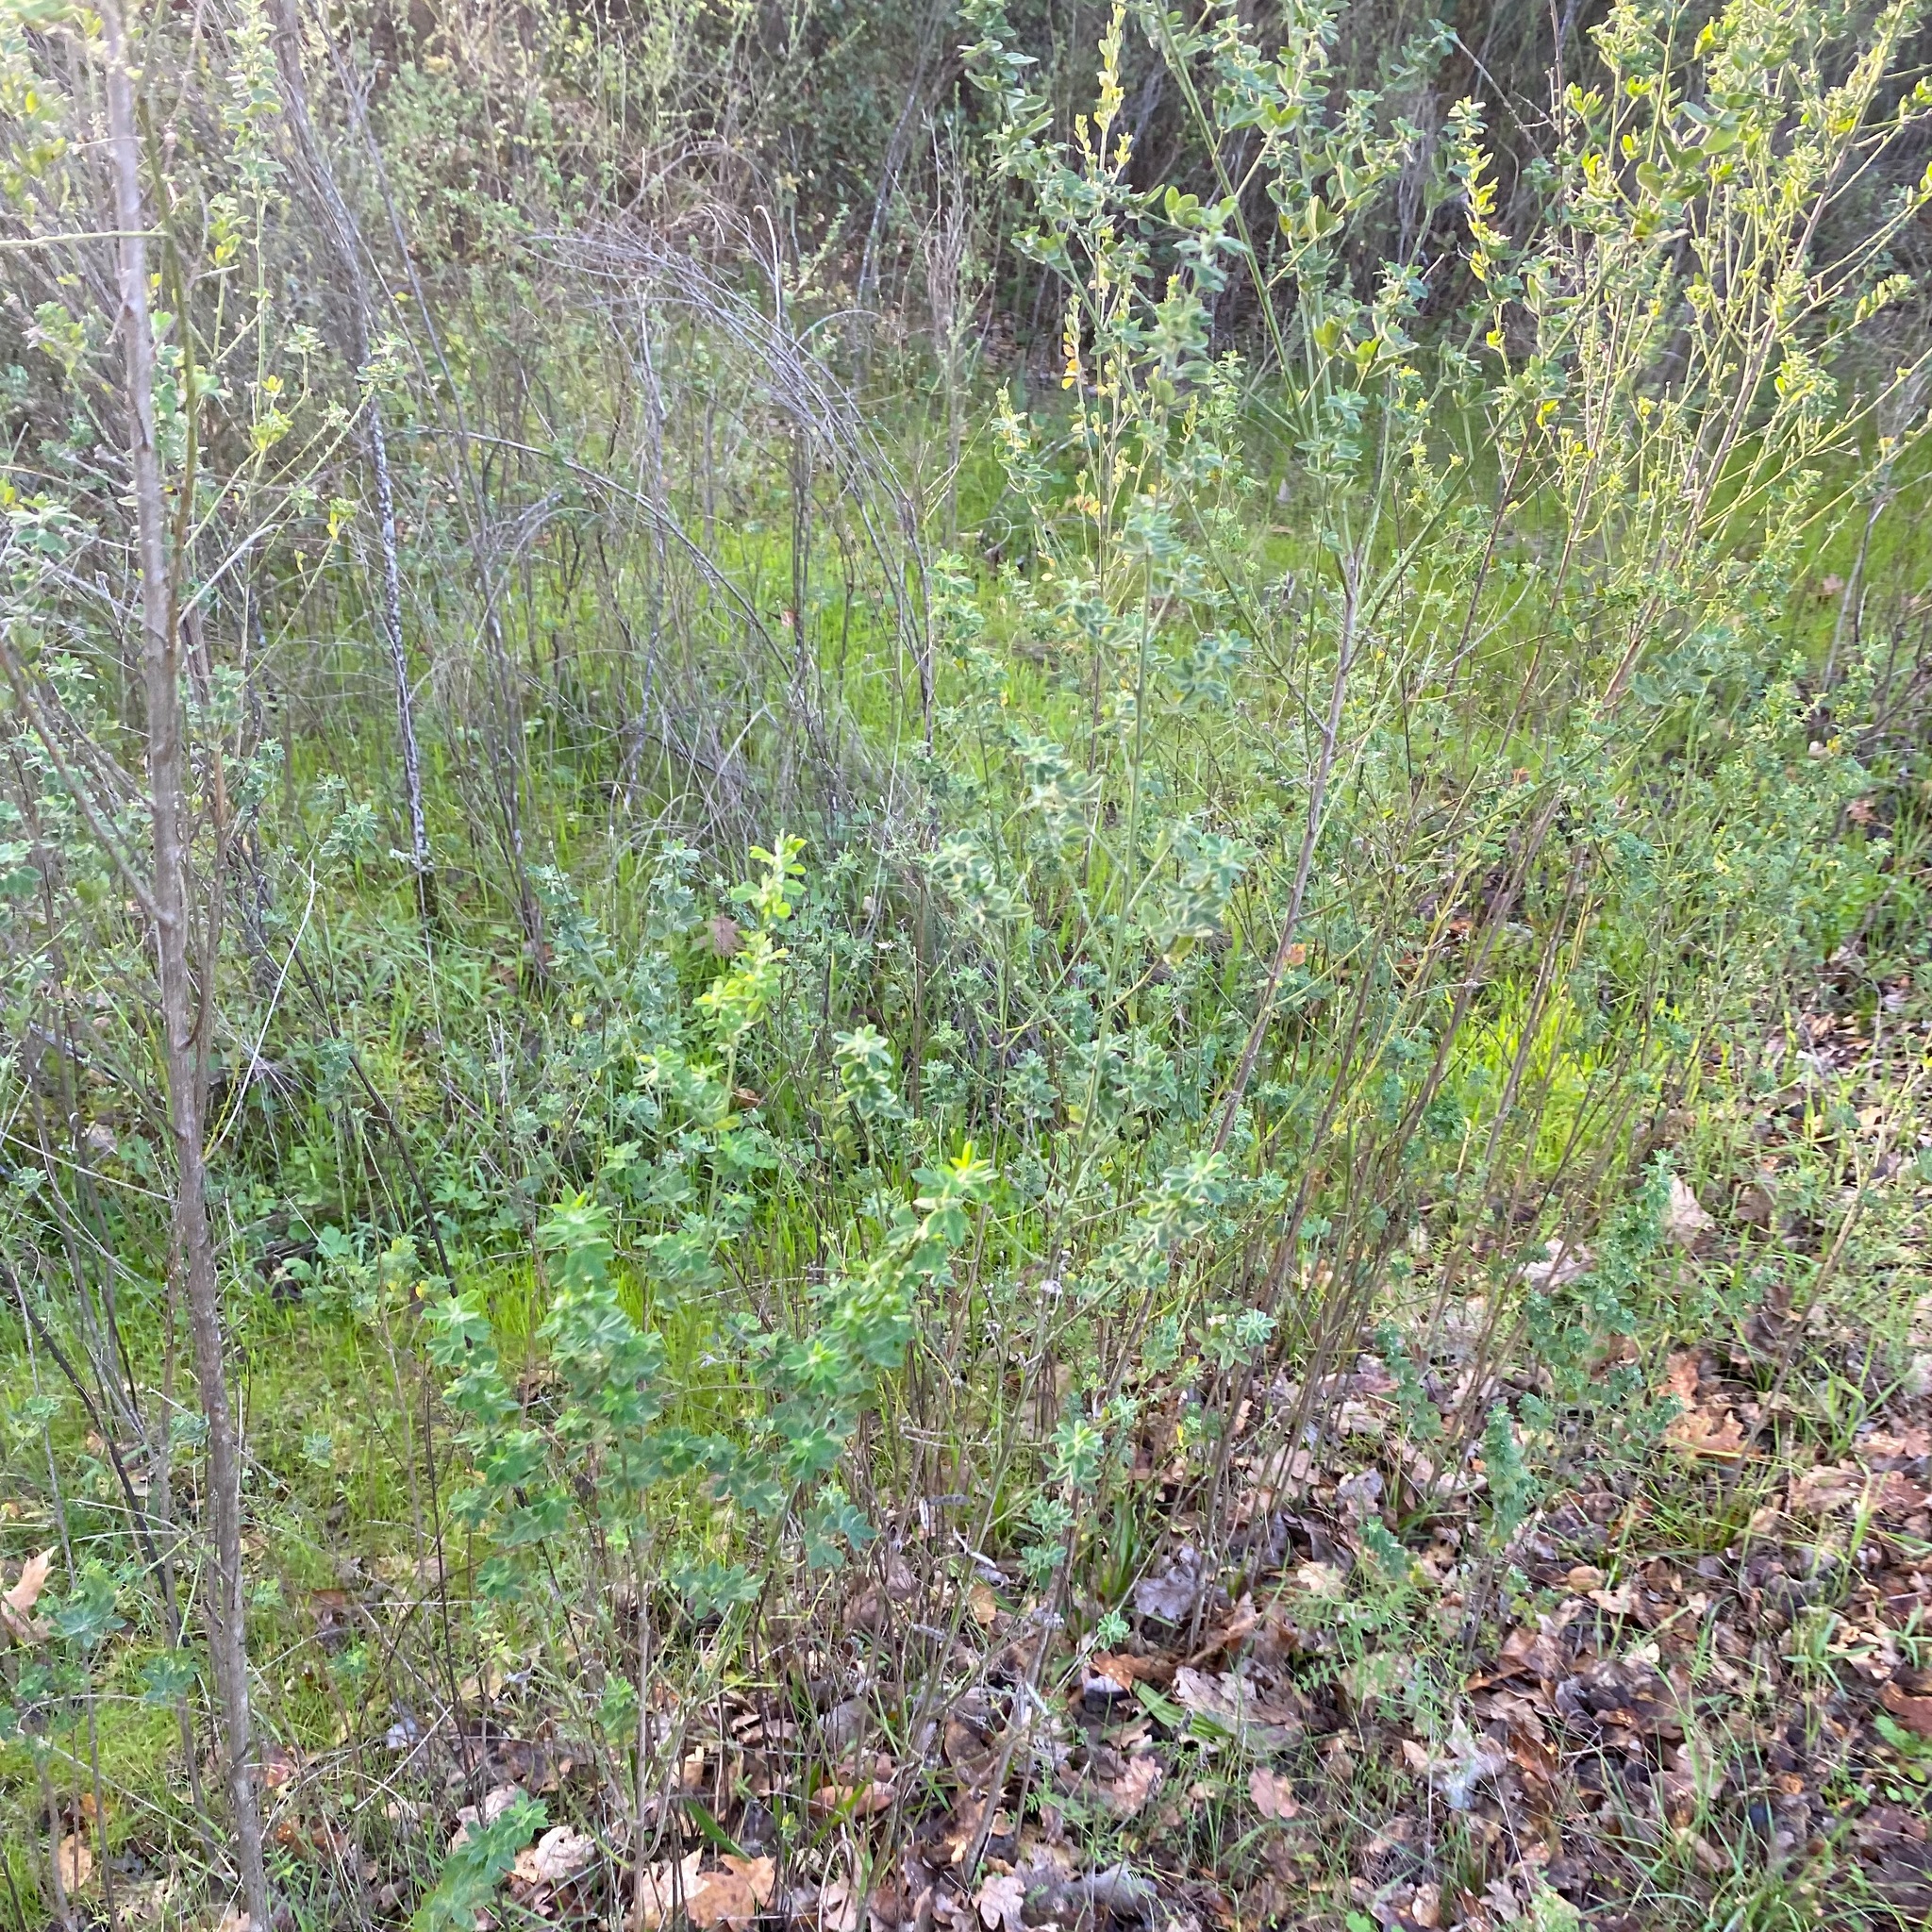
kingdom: Plantae
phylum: Tracheophyta
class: Magnoliopsida
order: Fabales
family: Fabaceae
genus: Genista
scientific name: Genista monspessulana
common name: Montpellier broom
